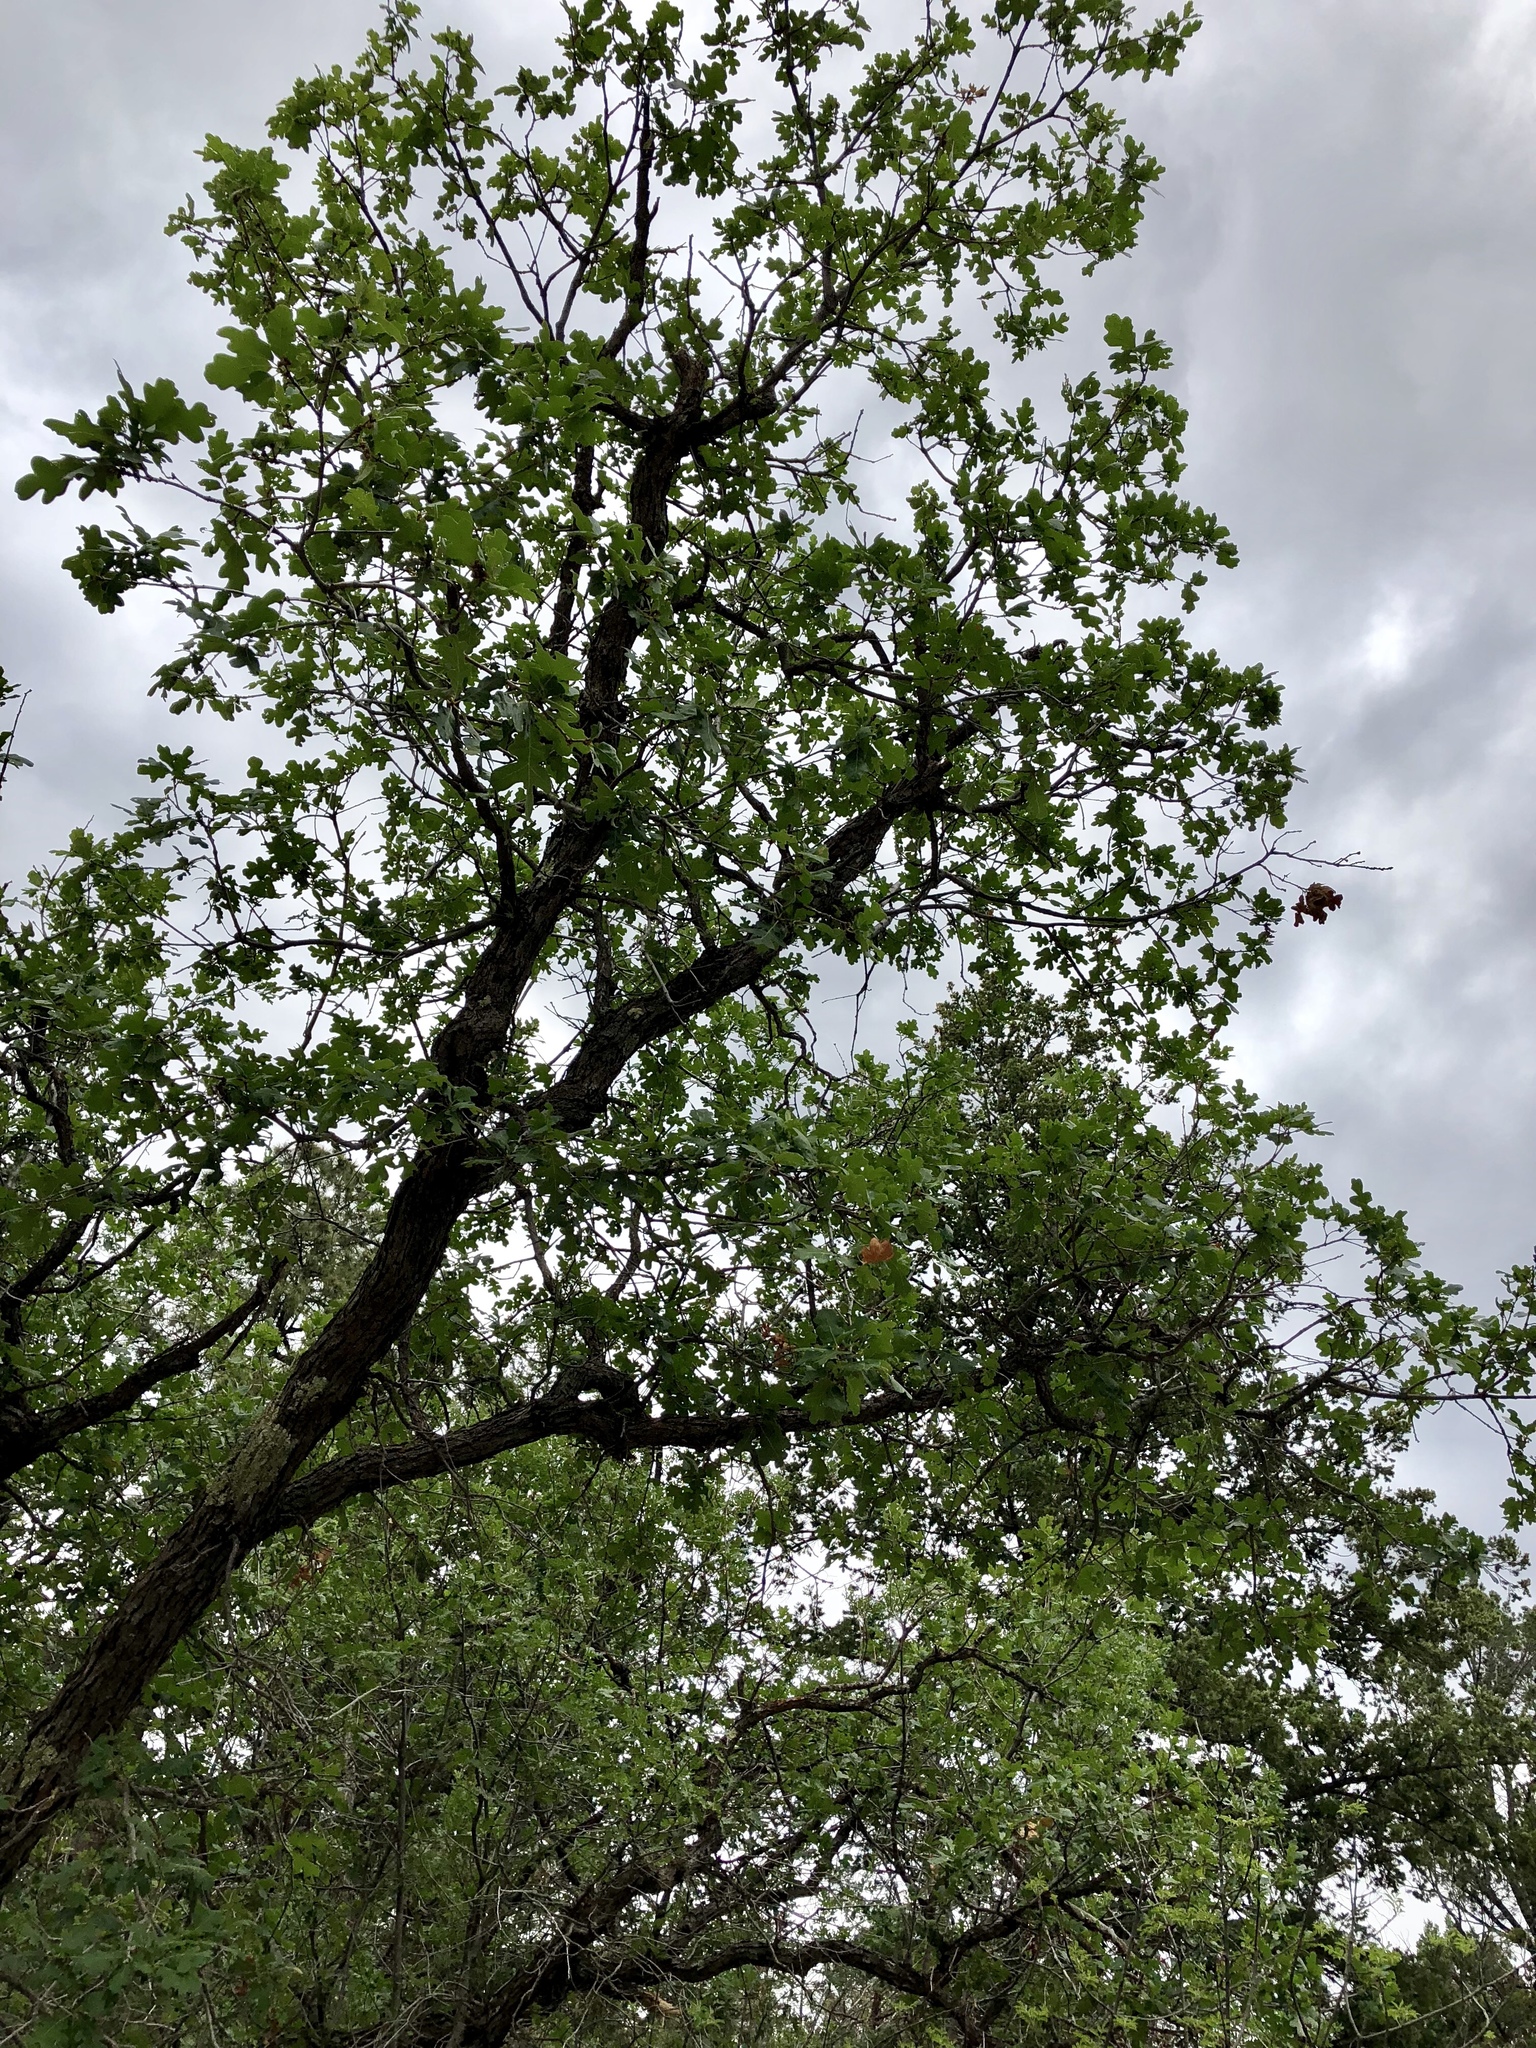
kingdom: Plantae
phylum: Tracheophyta
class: Magnoliopsida
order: Fagales
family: Fagaceae
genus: Quercus
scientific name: Quercus gambelii
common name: Gambel oak
